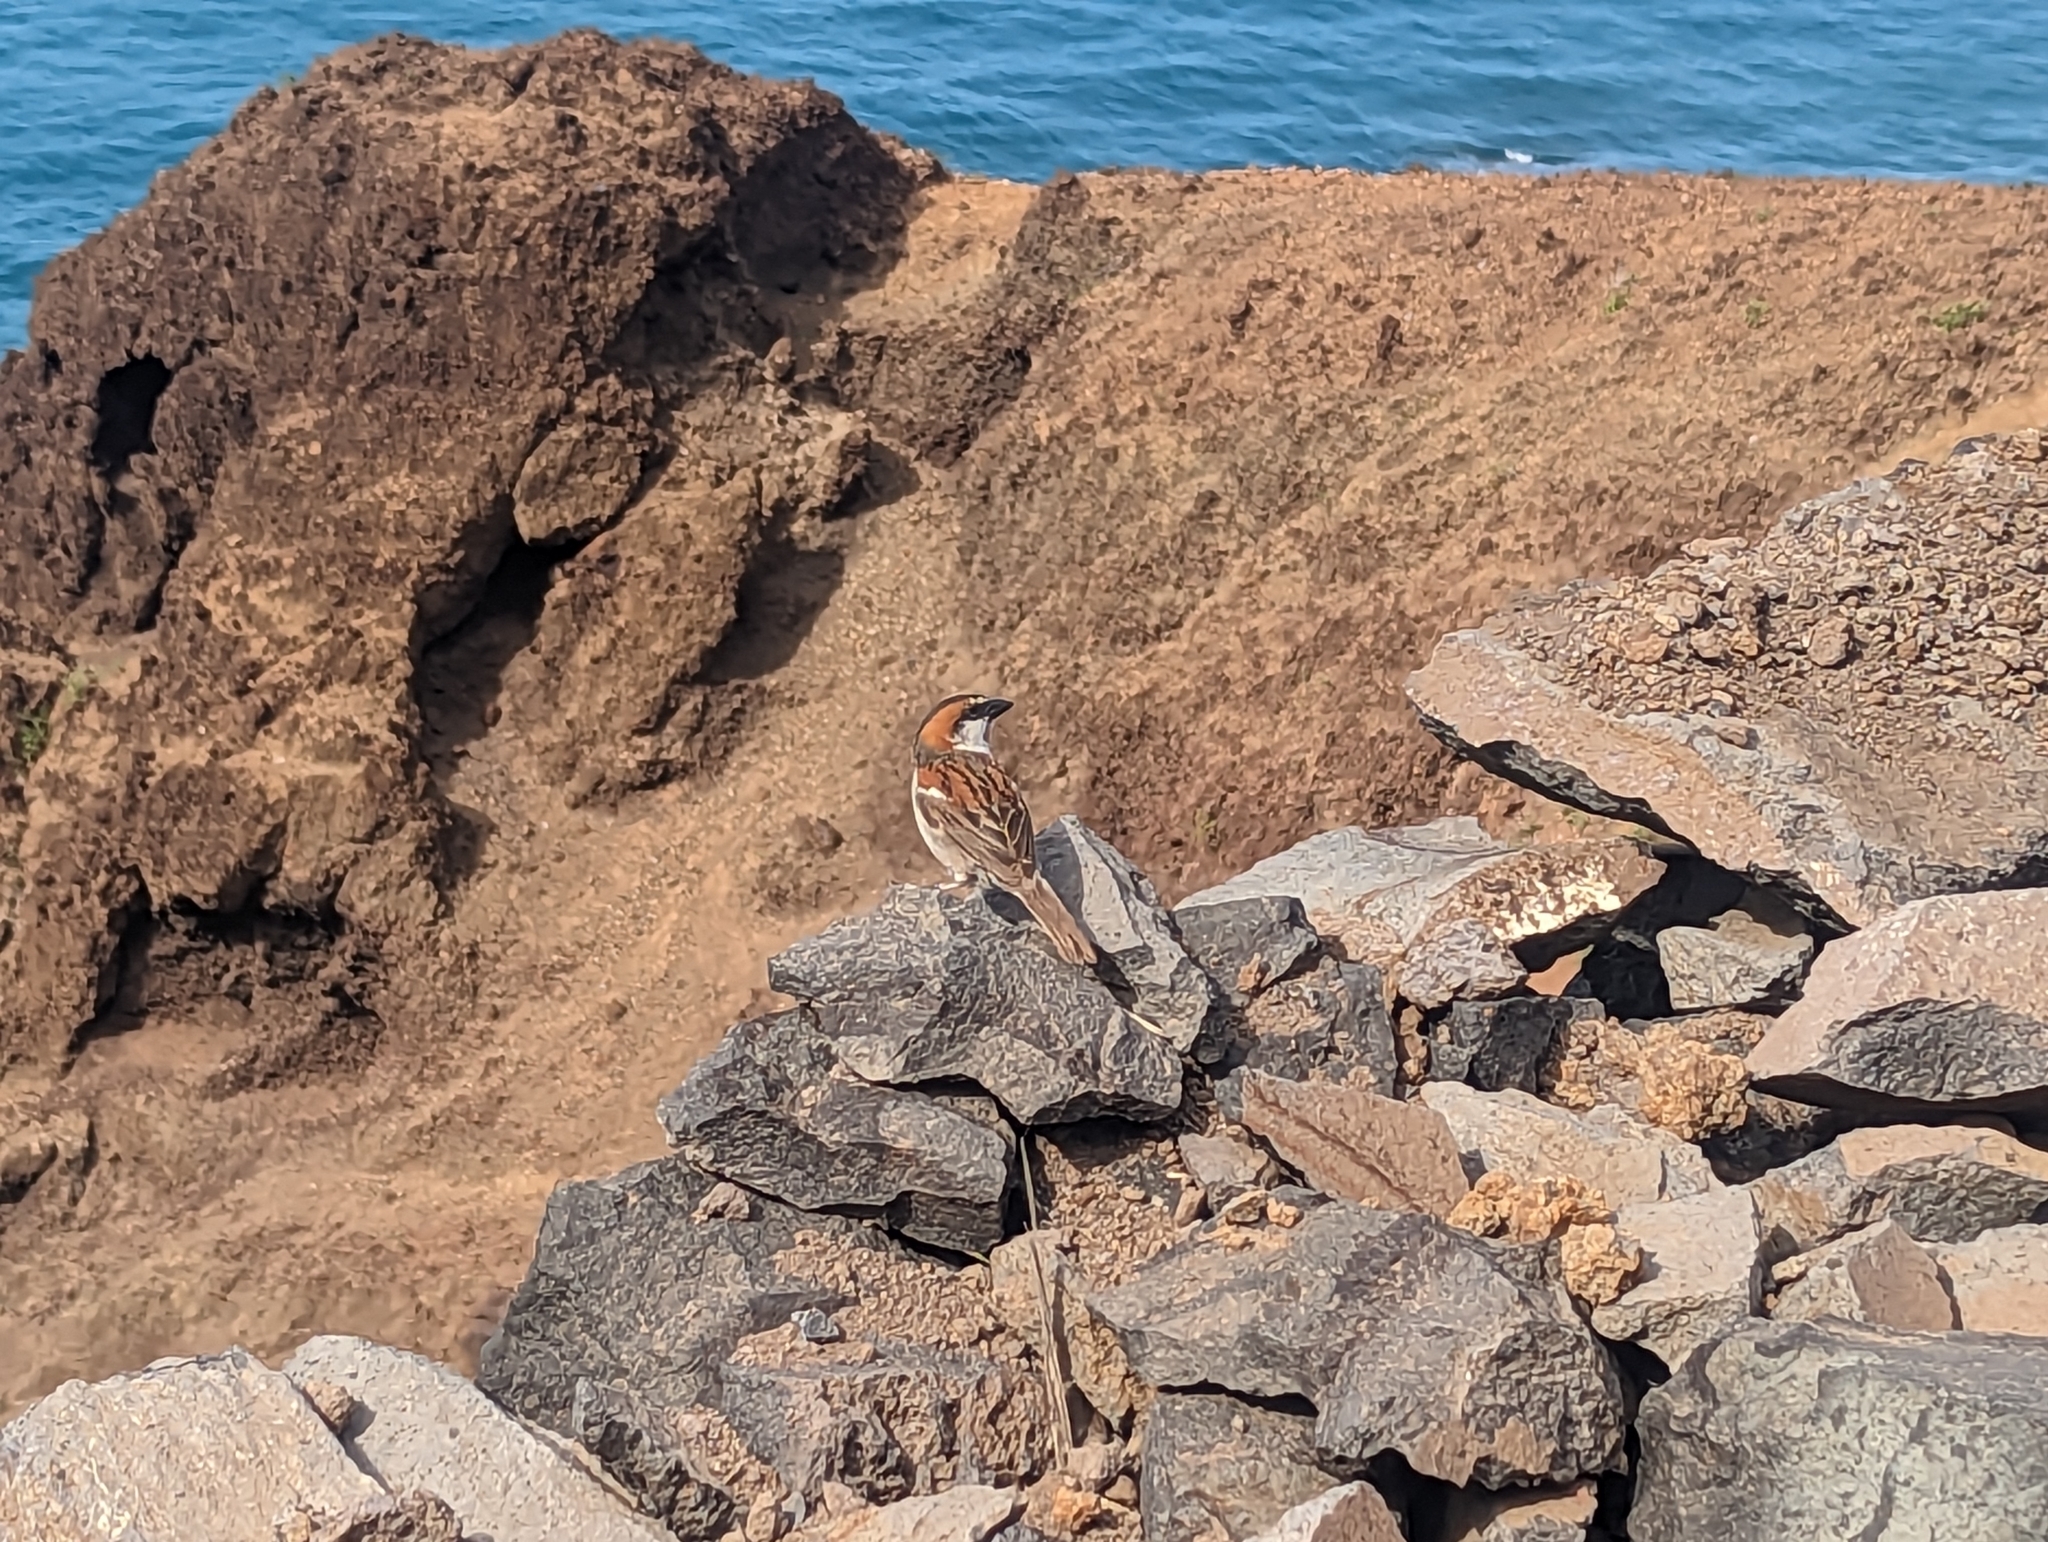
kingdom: Animalia
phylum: Chordata
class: Aves
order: Passeriformes
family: Passeridae
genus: Passer
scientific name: Passer iagoensis
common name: Iago sparrow
